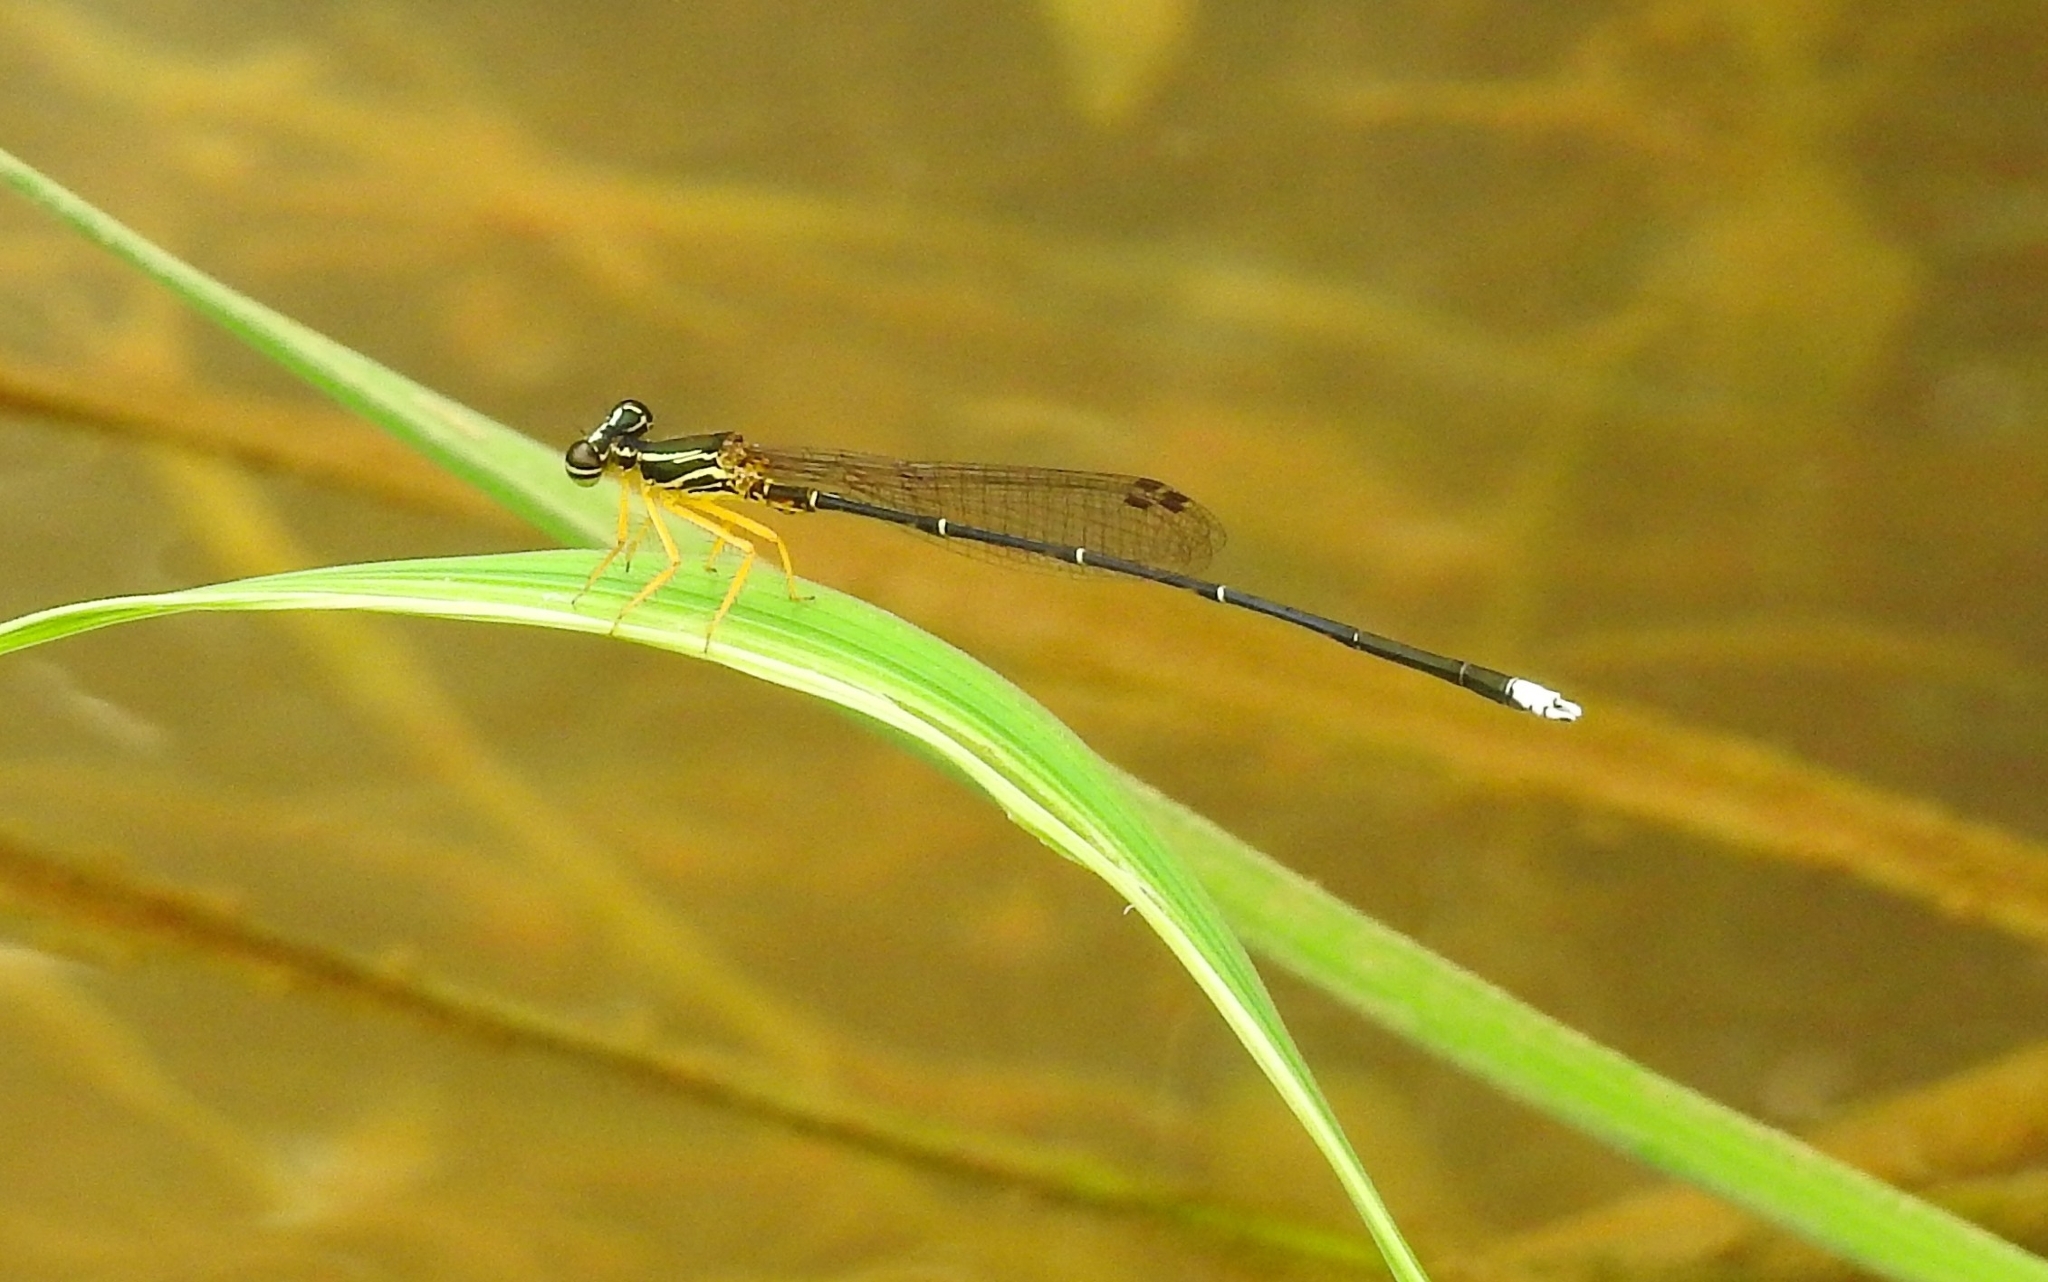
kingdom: Animalia
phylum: Arthropoda
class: Insecta
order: Odonata
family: Platycnemididae
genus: Copera
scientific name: Copera marginipes
